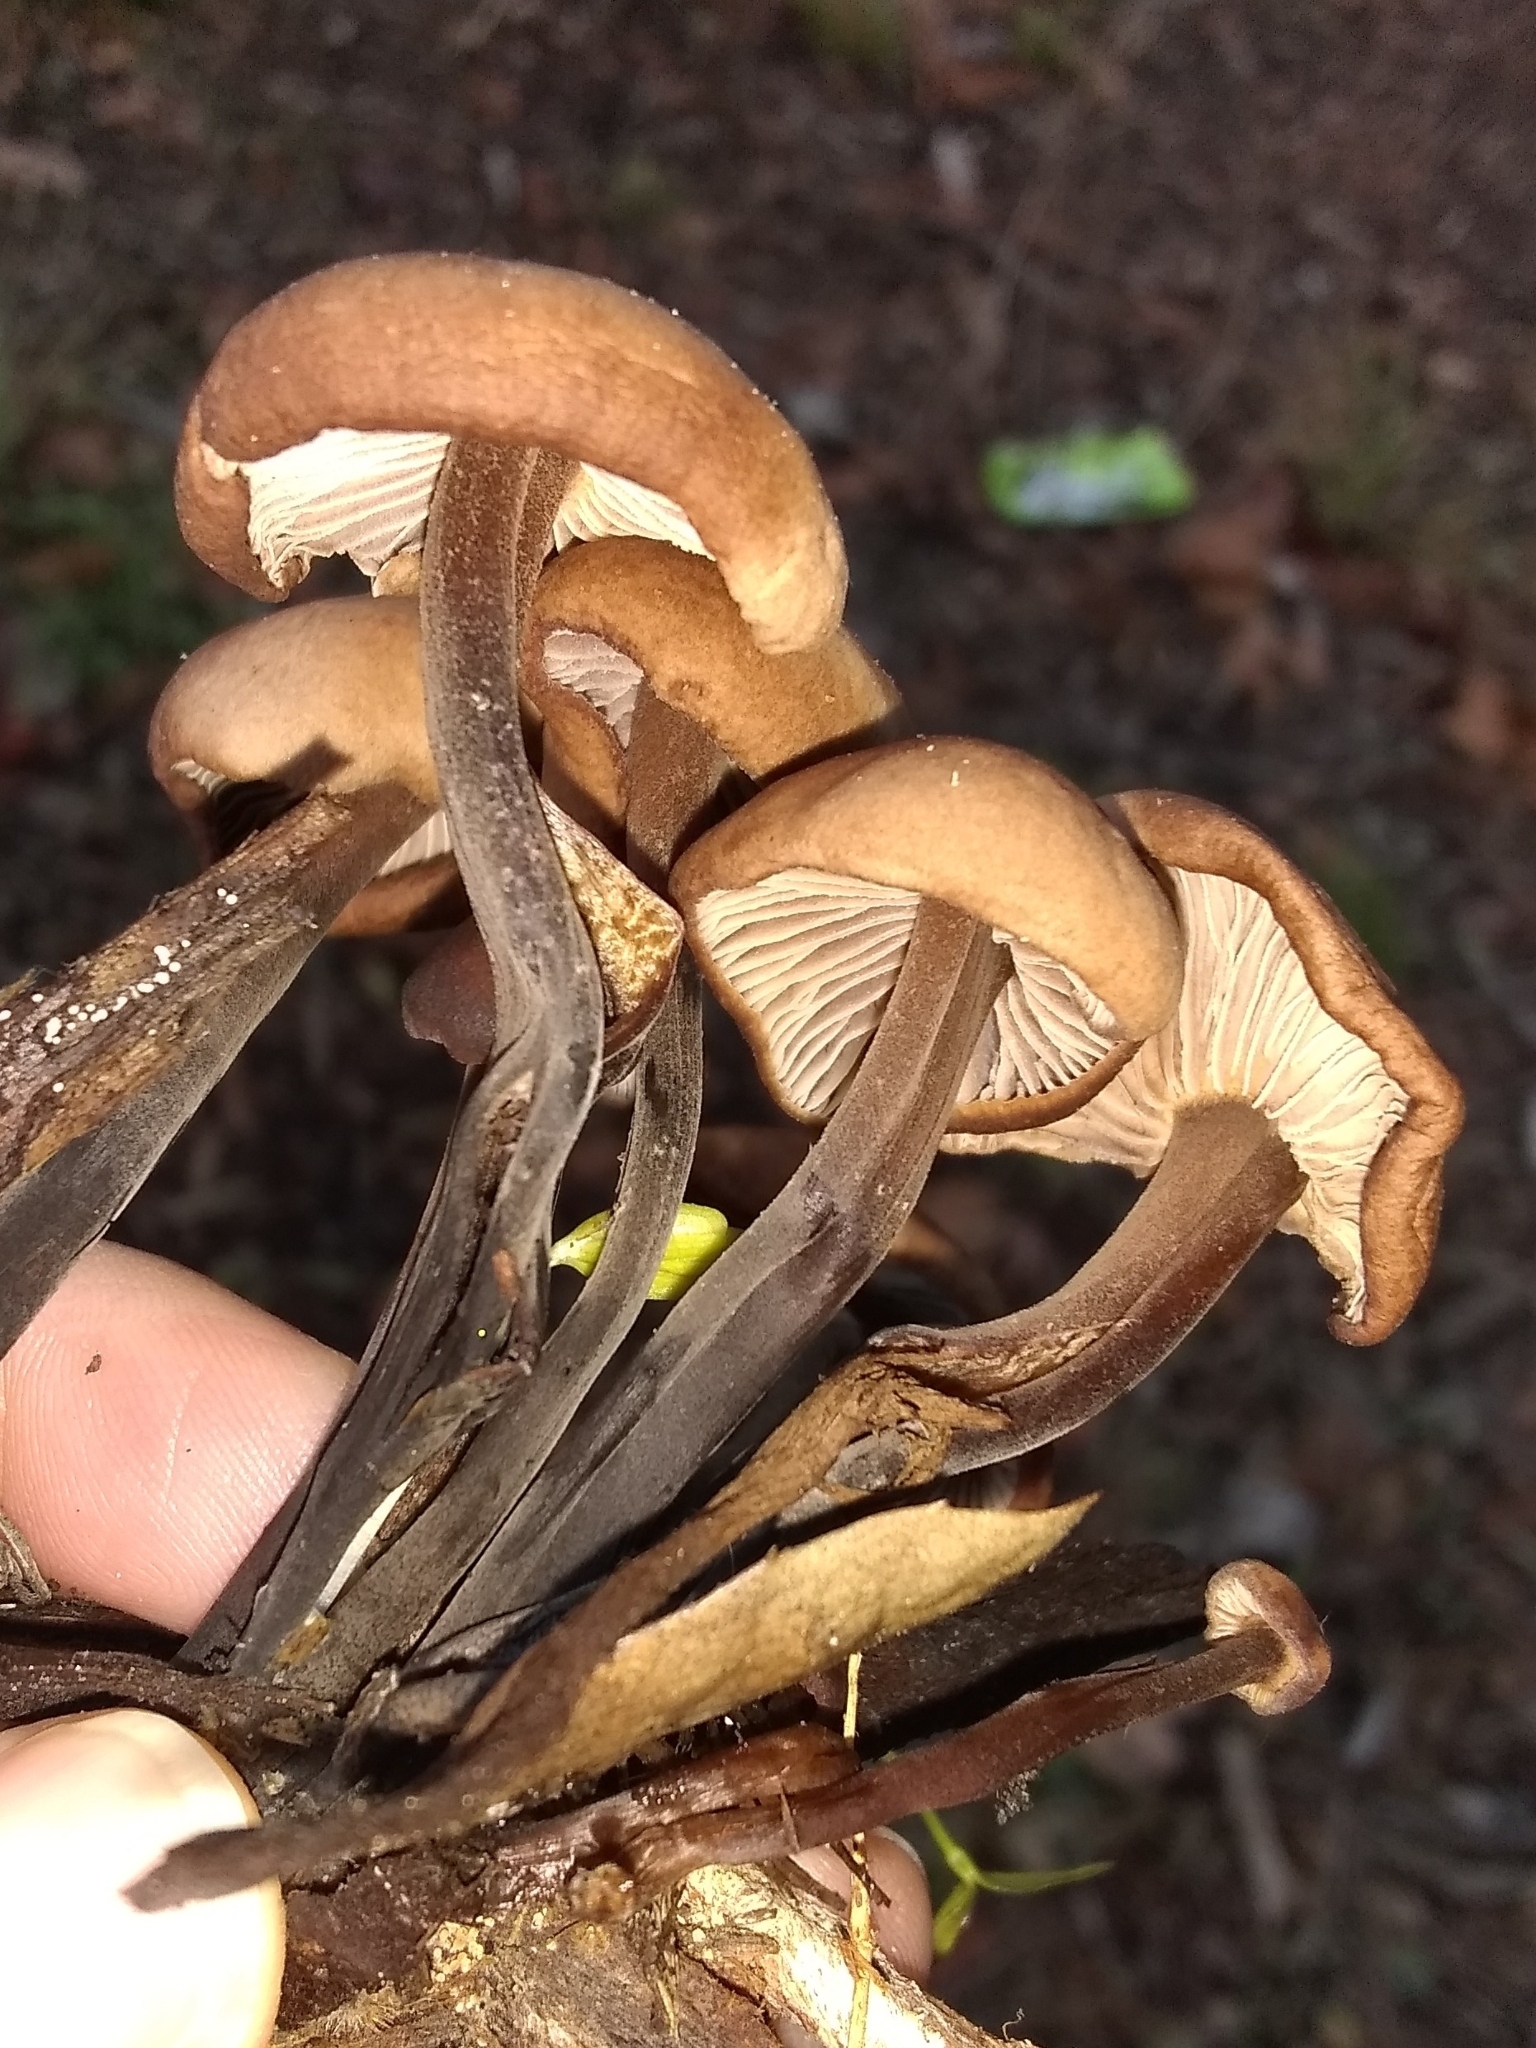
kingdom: Fungi
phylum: Basidiomycota
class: Agaricomycetes
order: Agaricales
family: Omphalotaceae
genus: Gymnopus
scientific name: Gymnopus brassicolens
